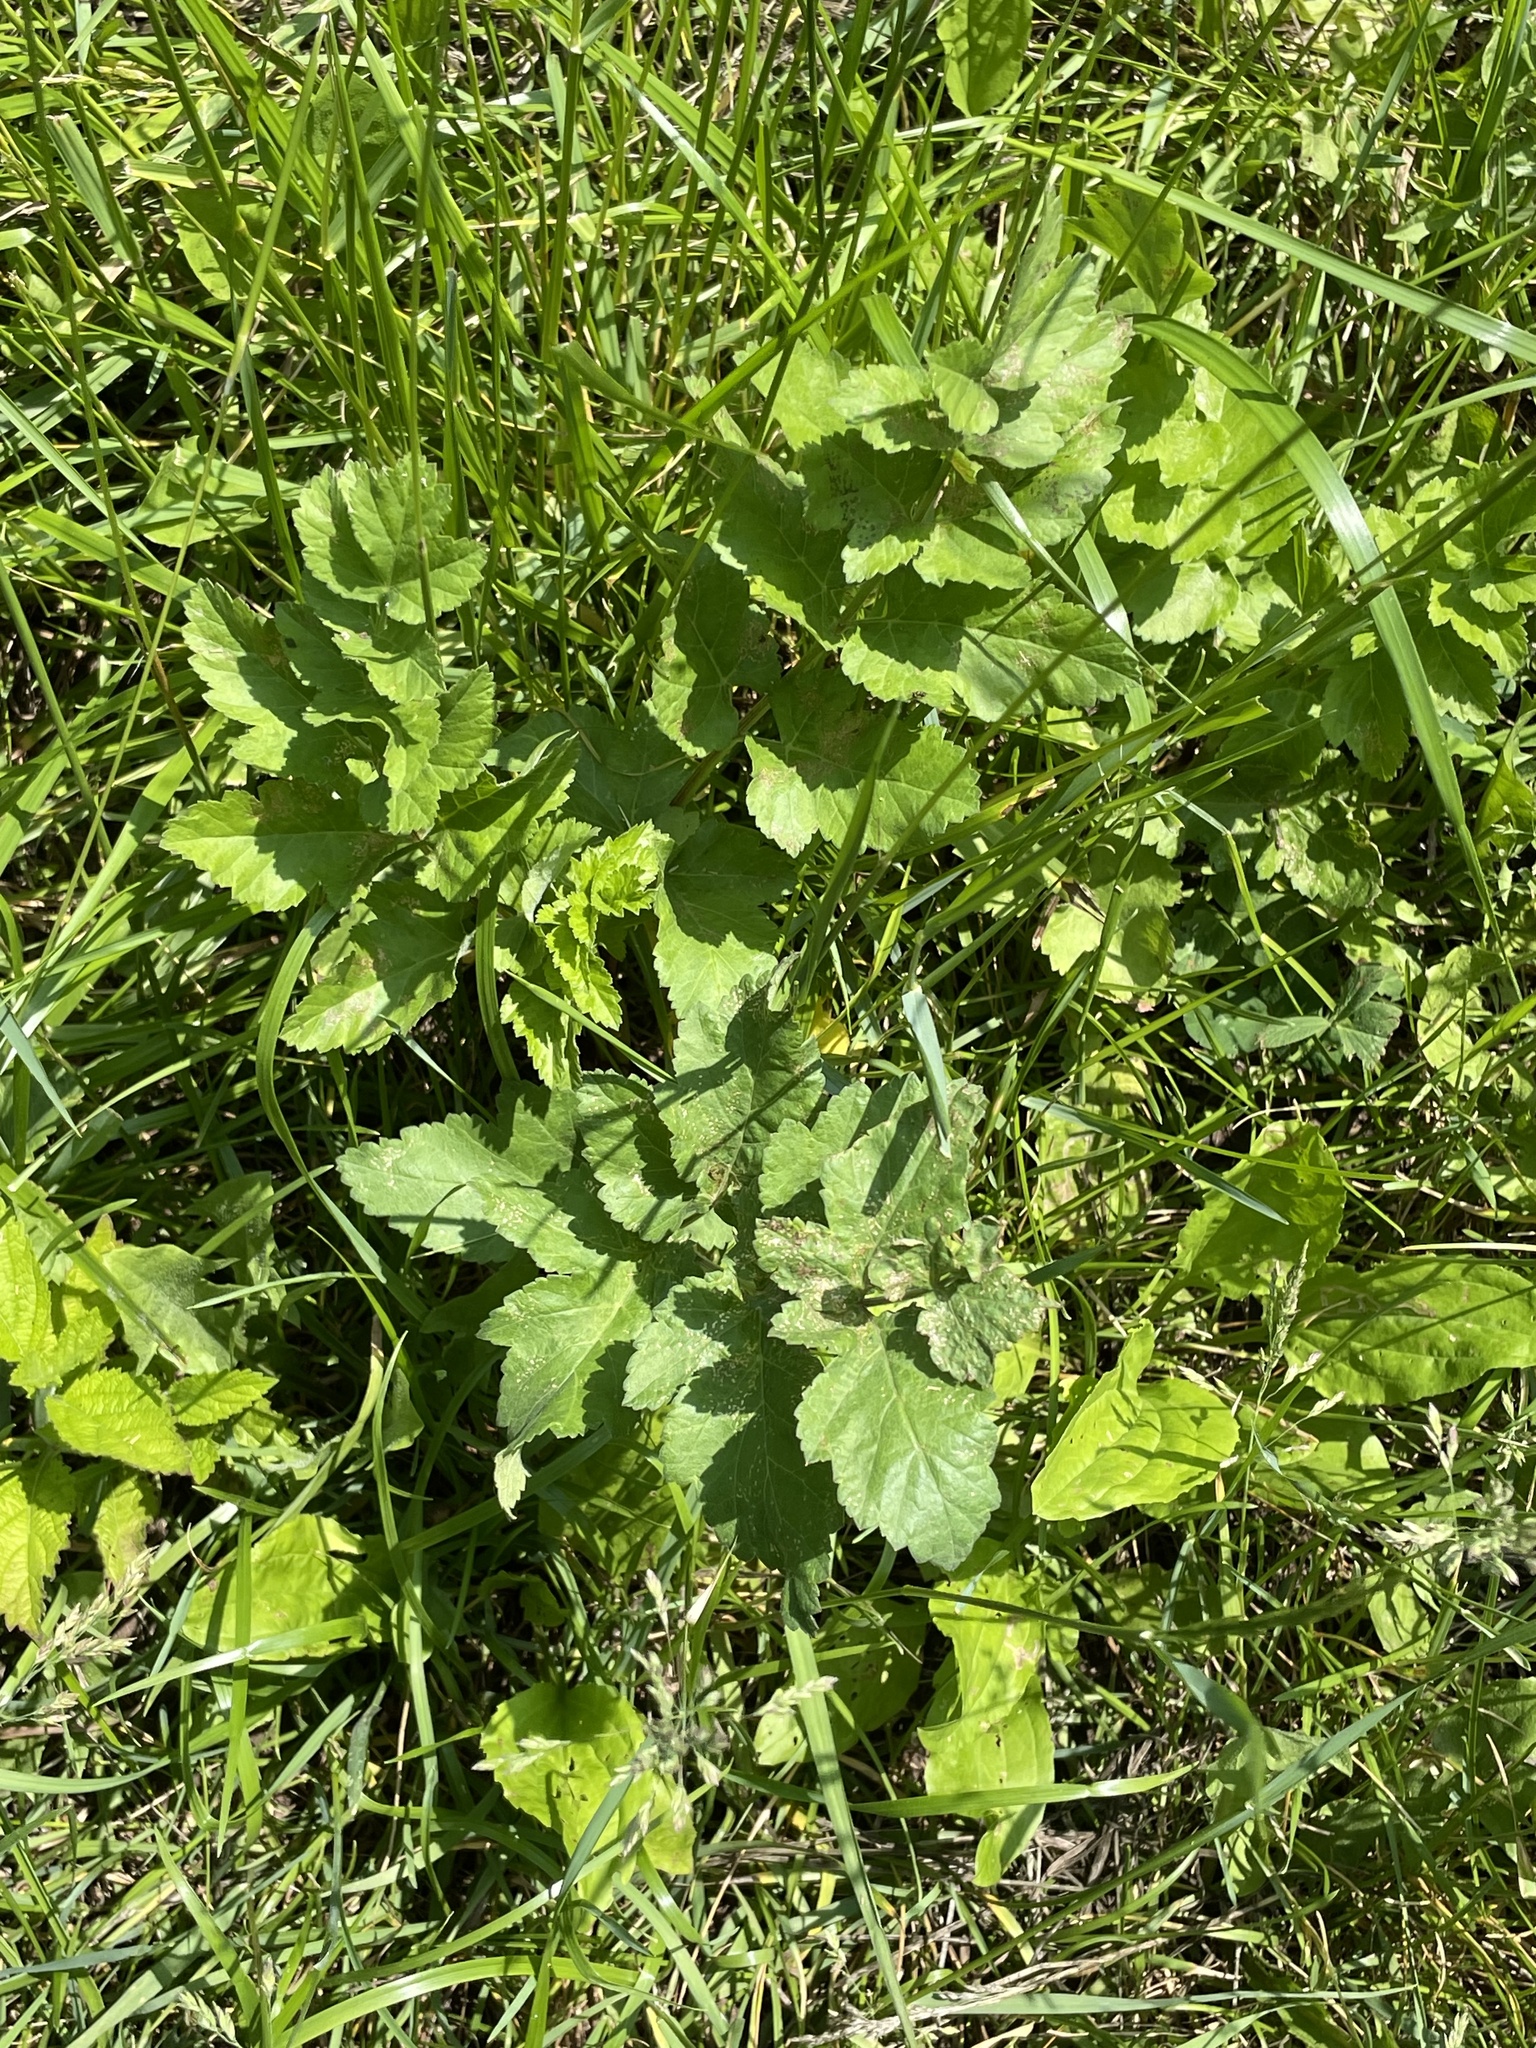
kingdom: Plantae
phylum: Tracheophyta
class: Magnoliopsida
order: Apiales
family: Apiaceae
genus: Pastinaca
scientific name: Pastinaca sativa
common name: Wild parsnip
